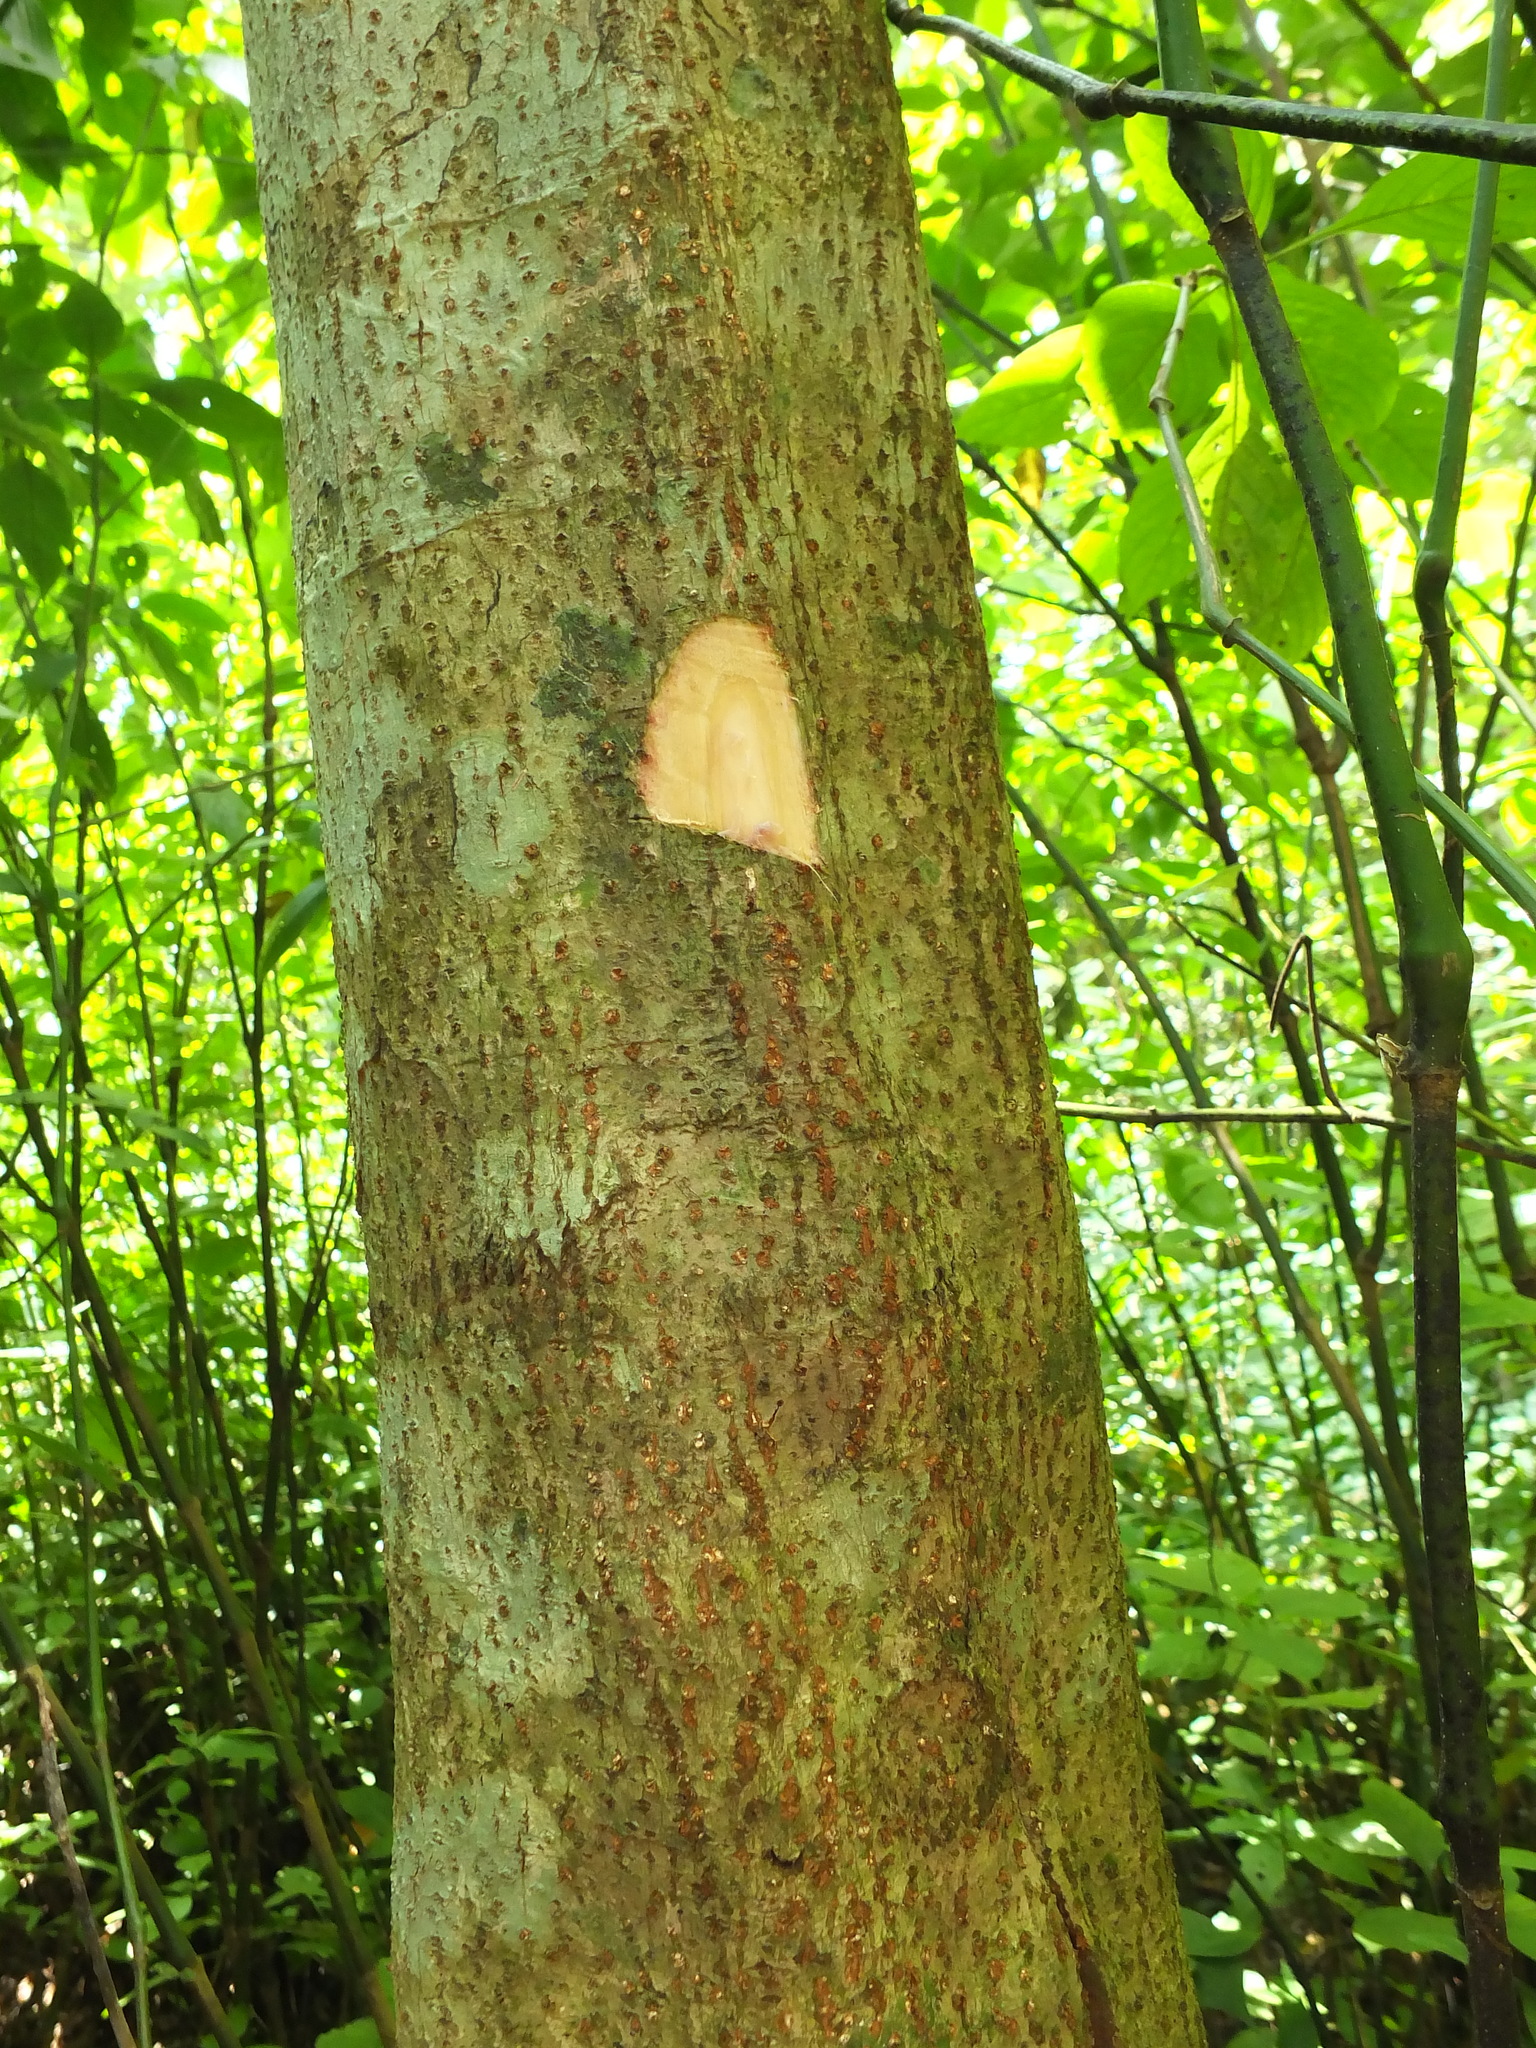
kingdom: Plantae
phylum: Tracheophyta
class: Magnoliopsida
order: Malpighiales
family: Euphorbiaceae
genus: Mallotus
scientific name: Mallotus tetracoccus
